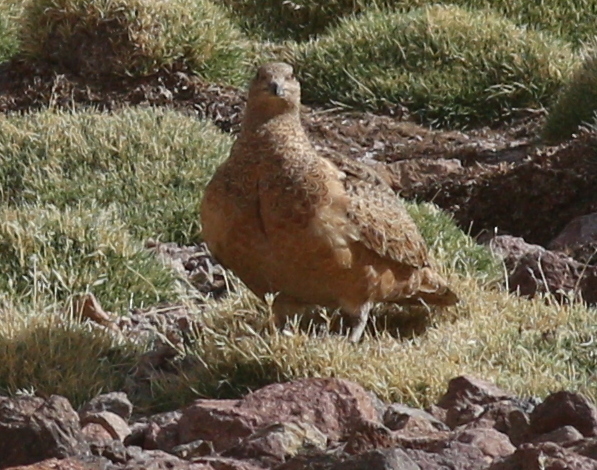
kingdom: Animalia
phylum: Chordata
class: Aves
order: Charadriiformes
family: Thinocoridae
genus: Attagis
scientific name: Attagis gayi
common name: Rufous-bellied seedsnipe
